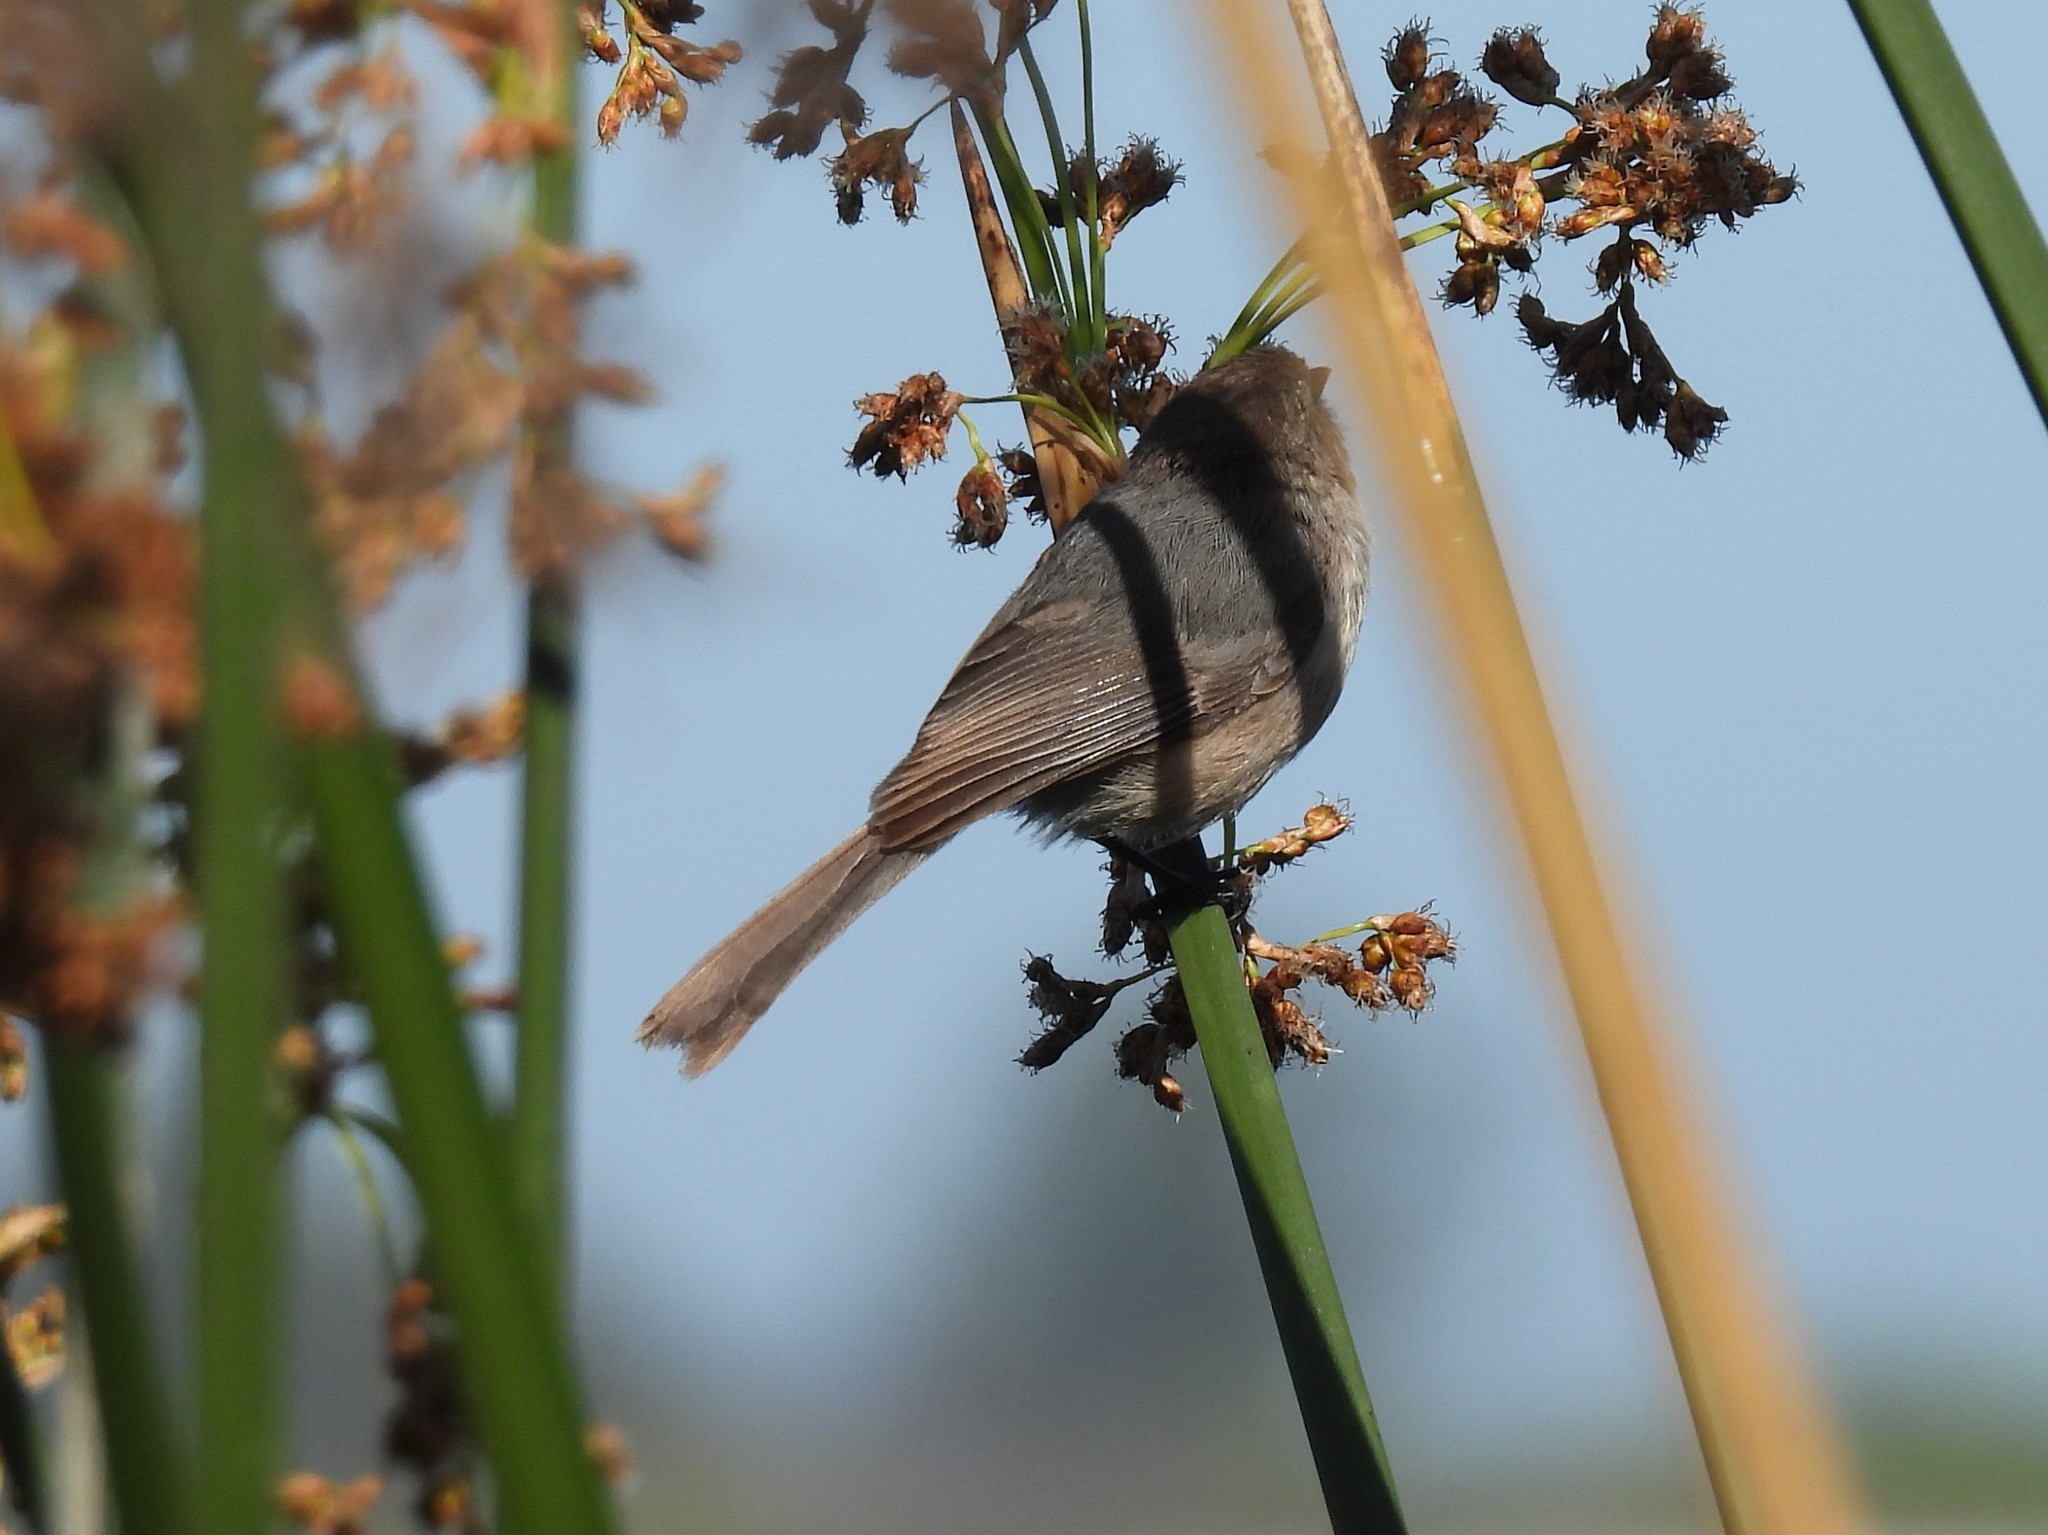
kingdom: Animalia
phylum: Chordata
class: Aves
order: Passeriformes
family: Aegithalidae
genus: Psaltriparus
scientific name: Psaltriparus minimus
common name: American bushtit
